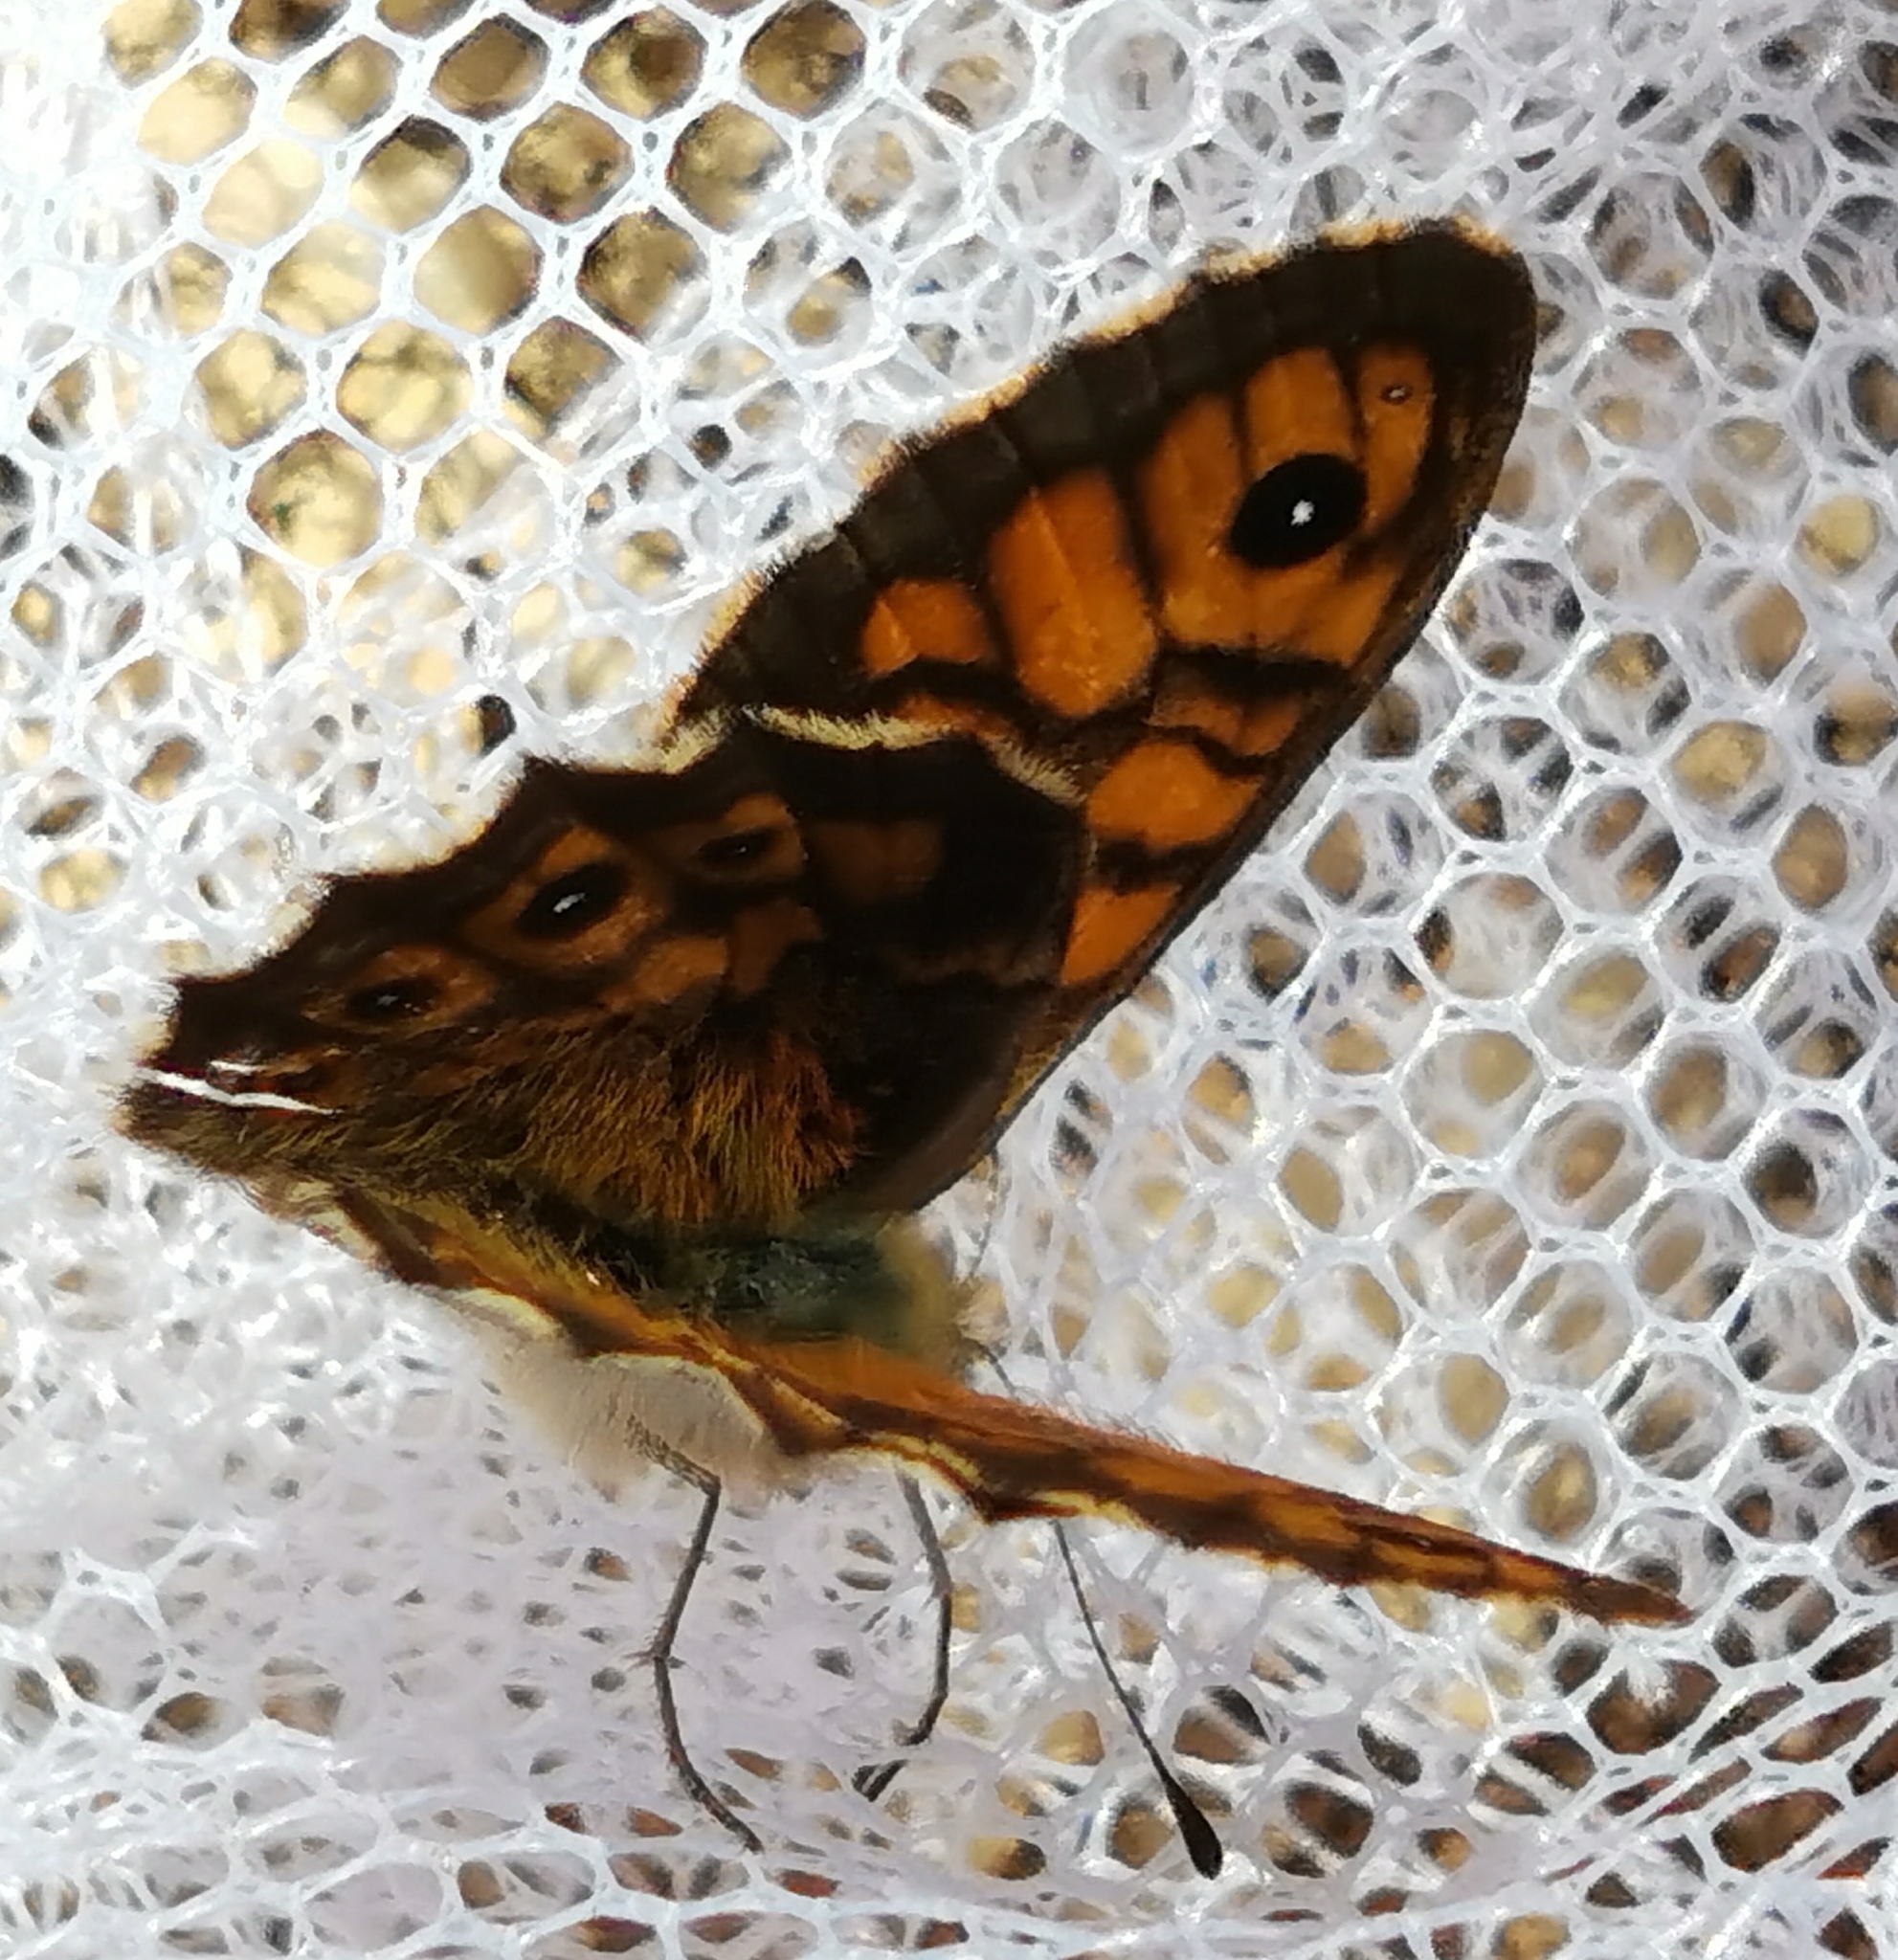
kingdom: Animalia
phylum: Arthropoda
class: Insecta
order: Lepidoptera
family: Nymphalidae
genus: Pararge
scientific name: Pararge Lasiommata megera
